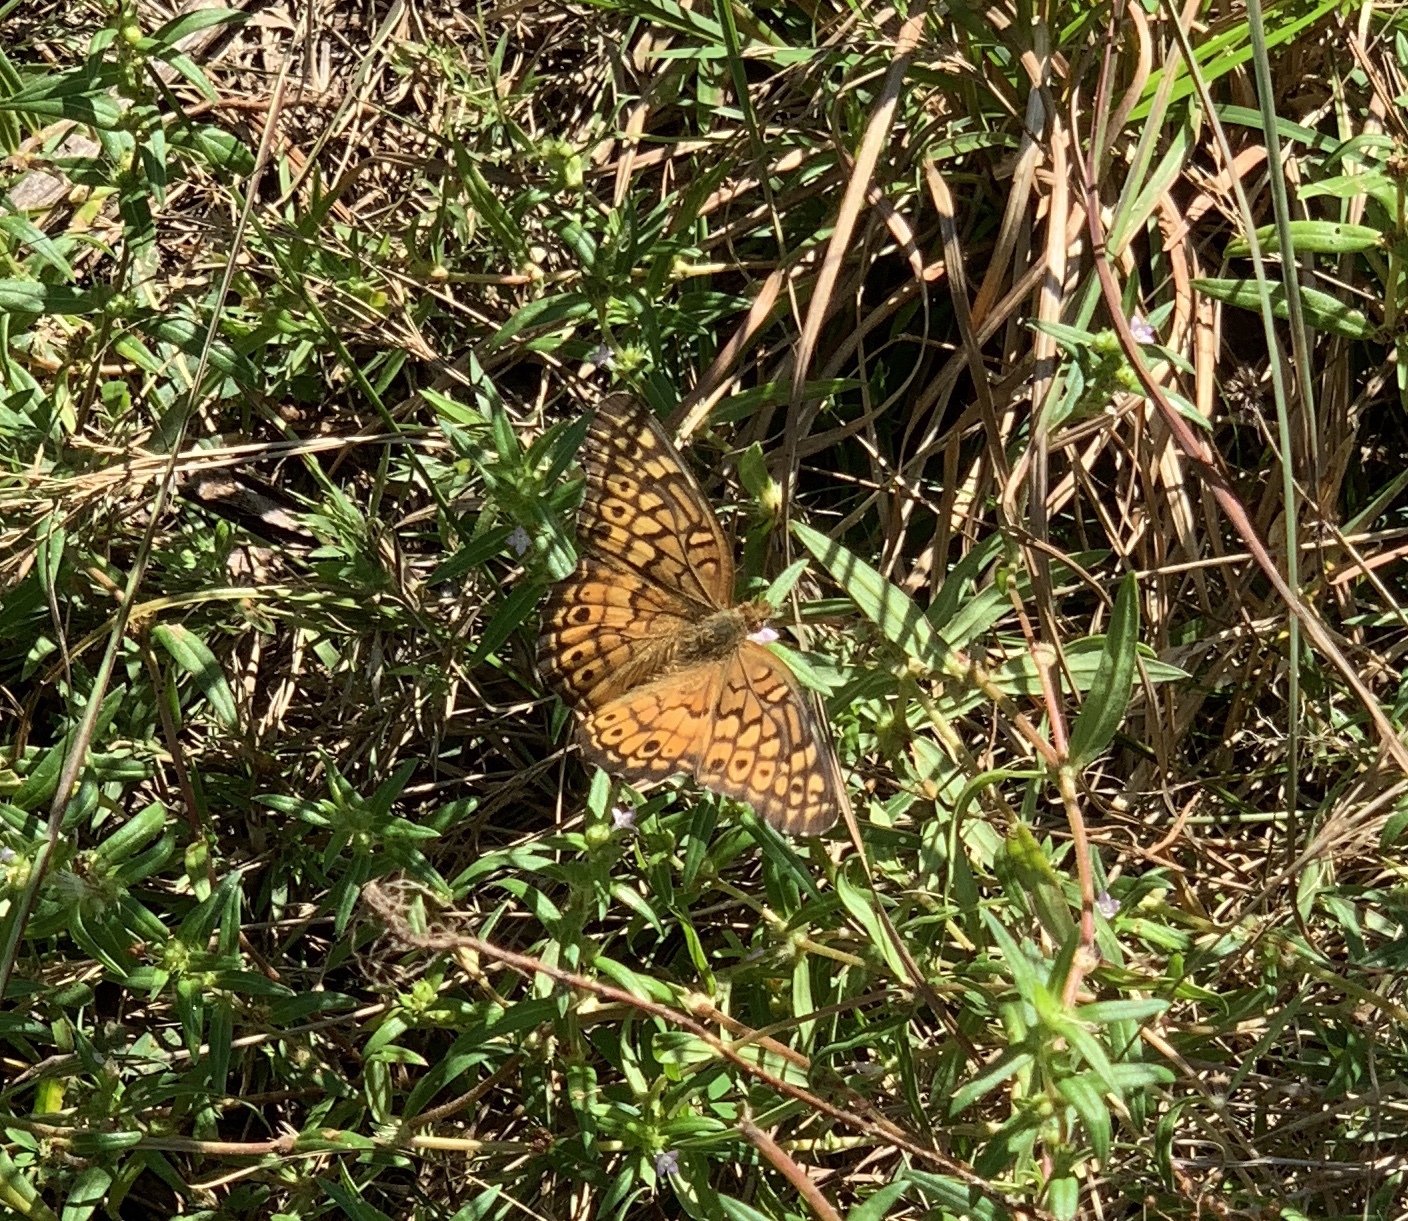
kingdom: Animalia
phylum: Arthropoda
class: Insecta
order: Lepidoptera
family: Nymphalidae
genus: Euptoieta
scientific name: Euptoieta claudia
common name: Variegated fritillary
